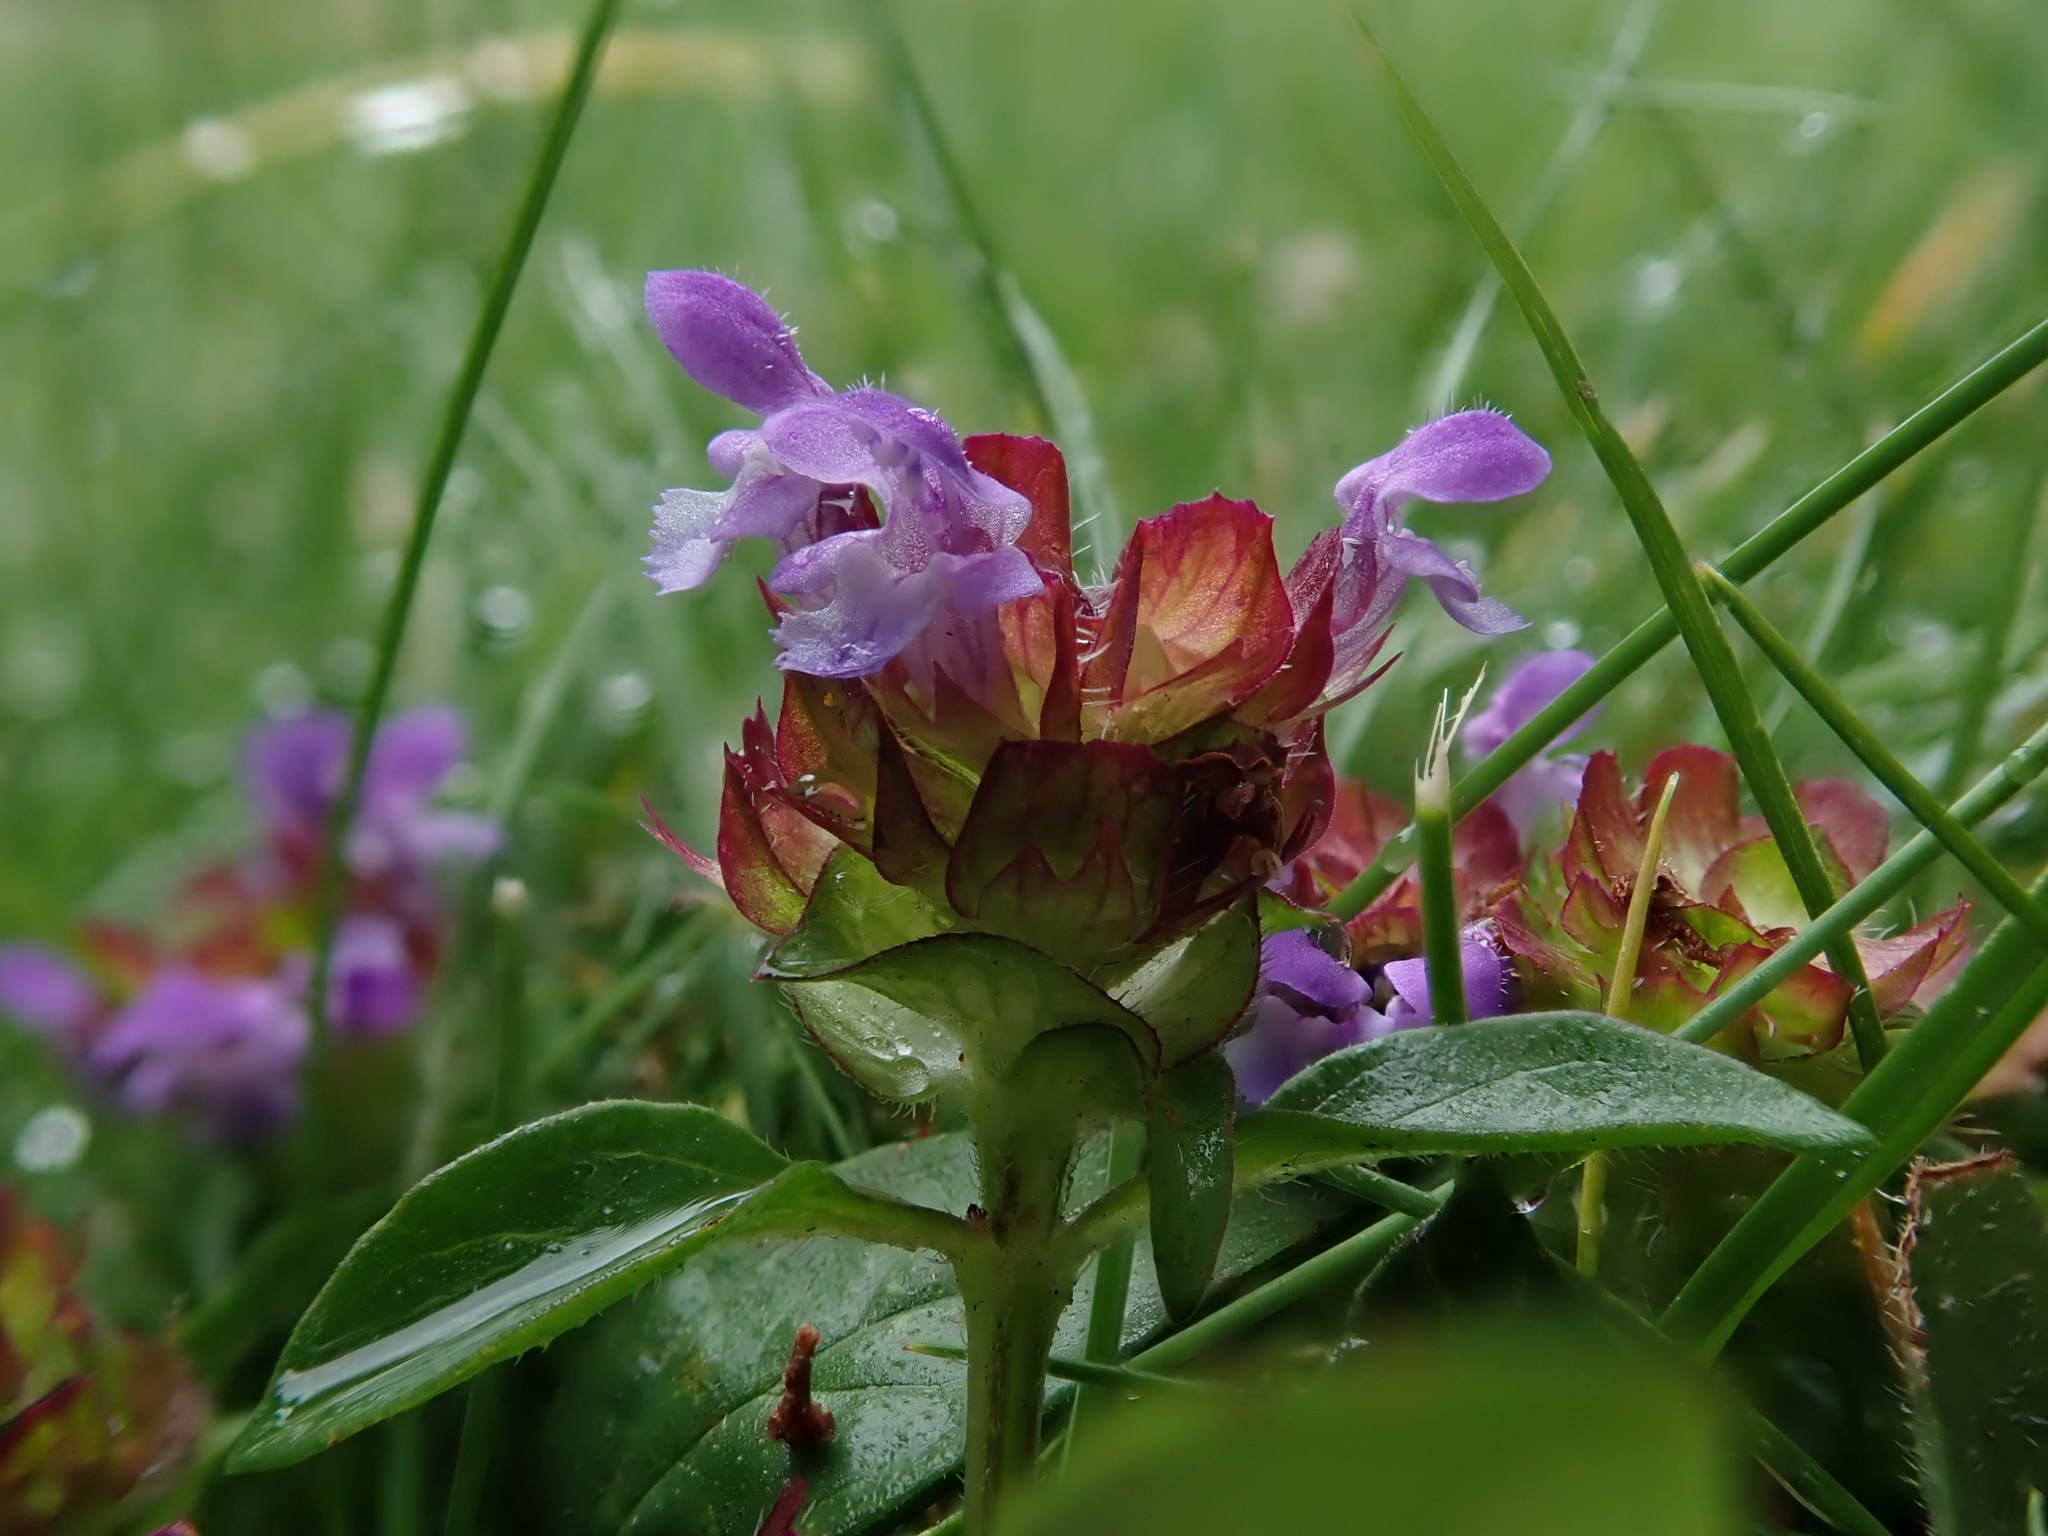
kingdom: Plantae
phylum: Tracheophyta
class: Magnoliopsida
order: Lamiales
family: Lamiaceae
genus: Prunella
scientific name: Prunella vulgaris
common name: Heal-all
